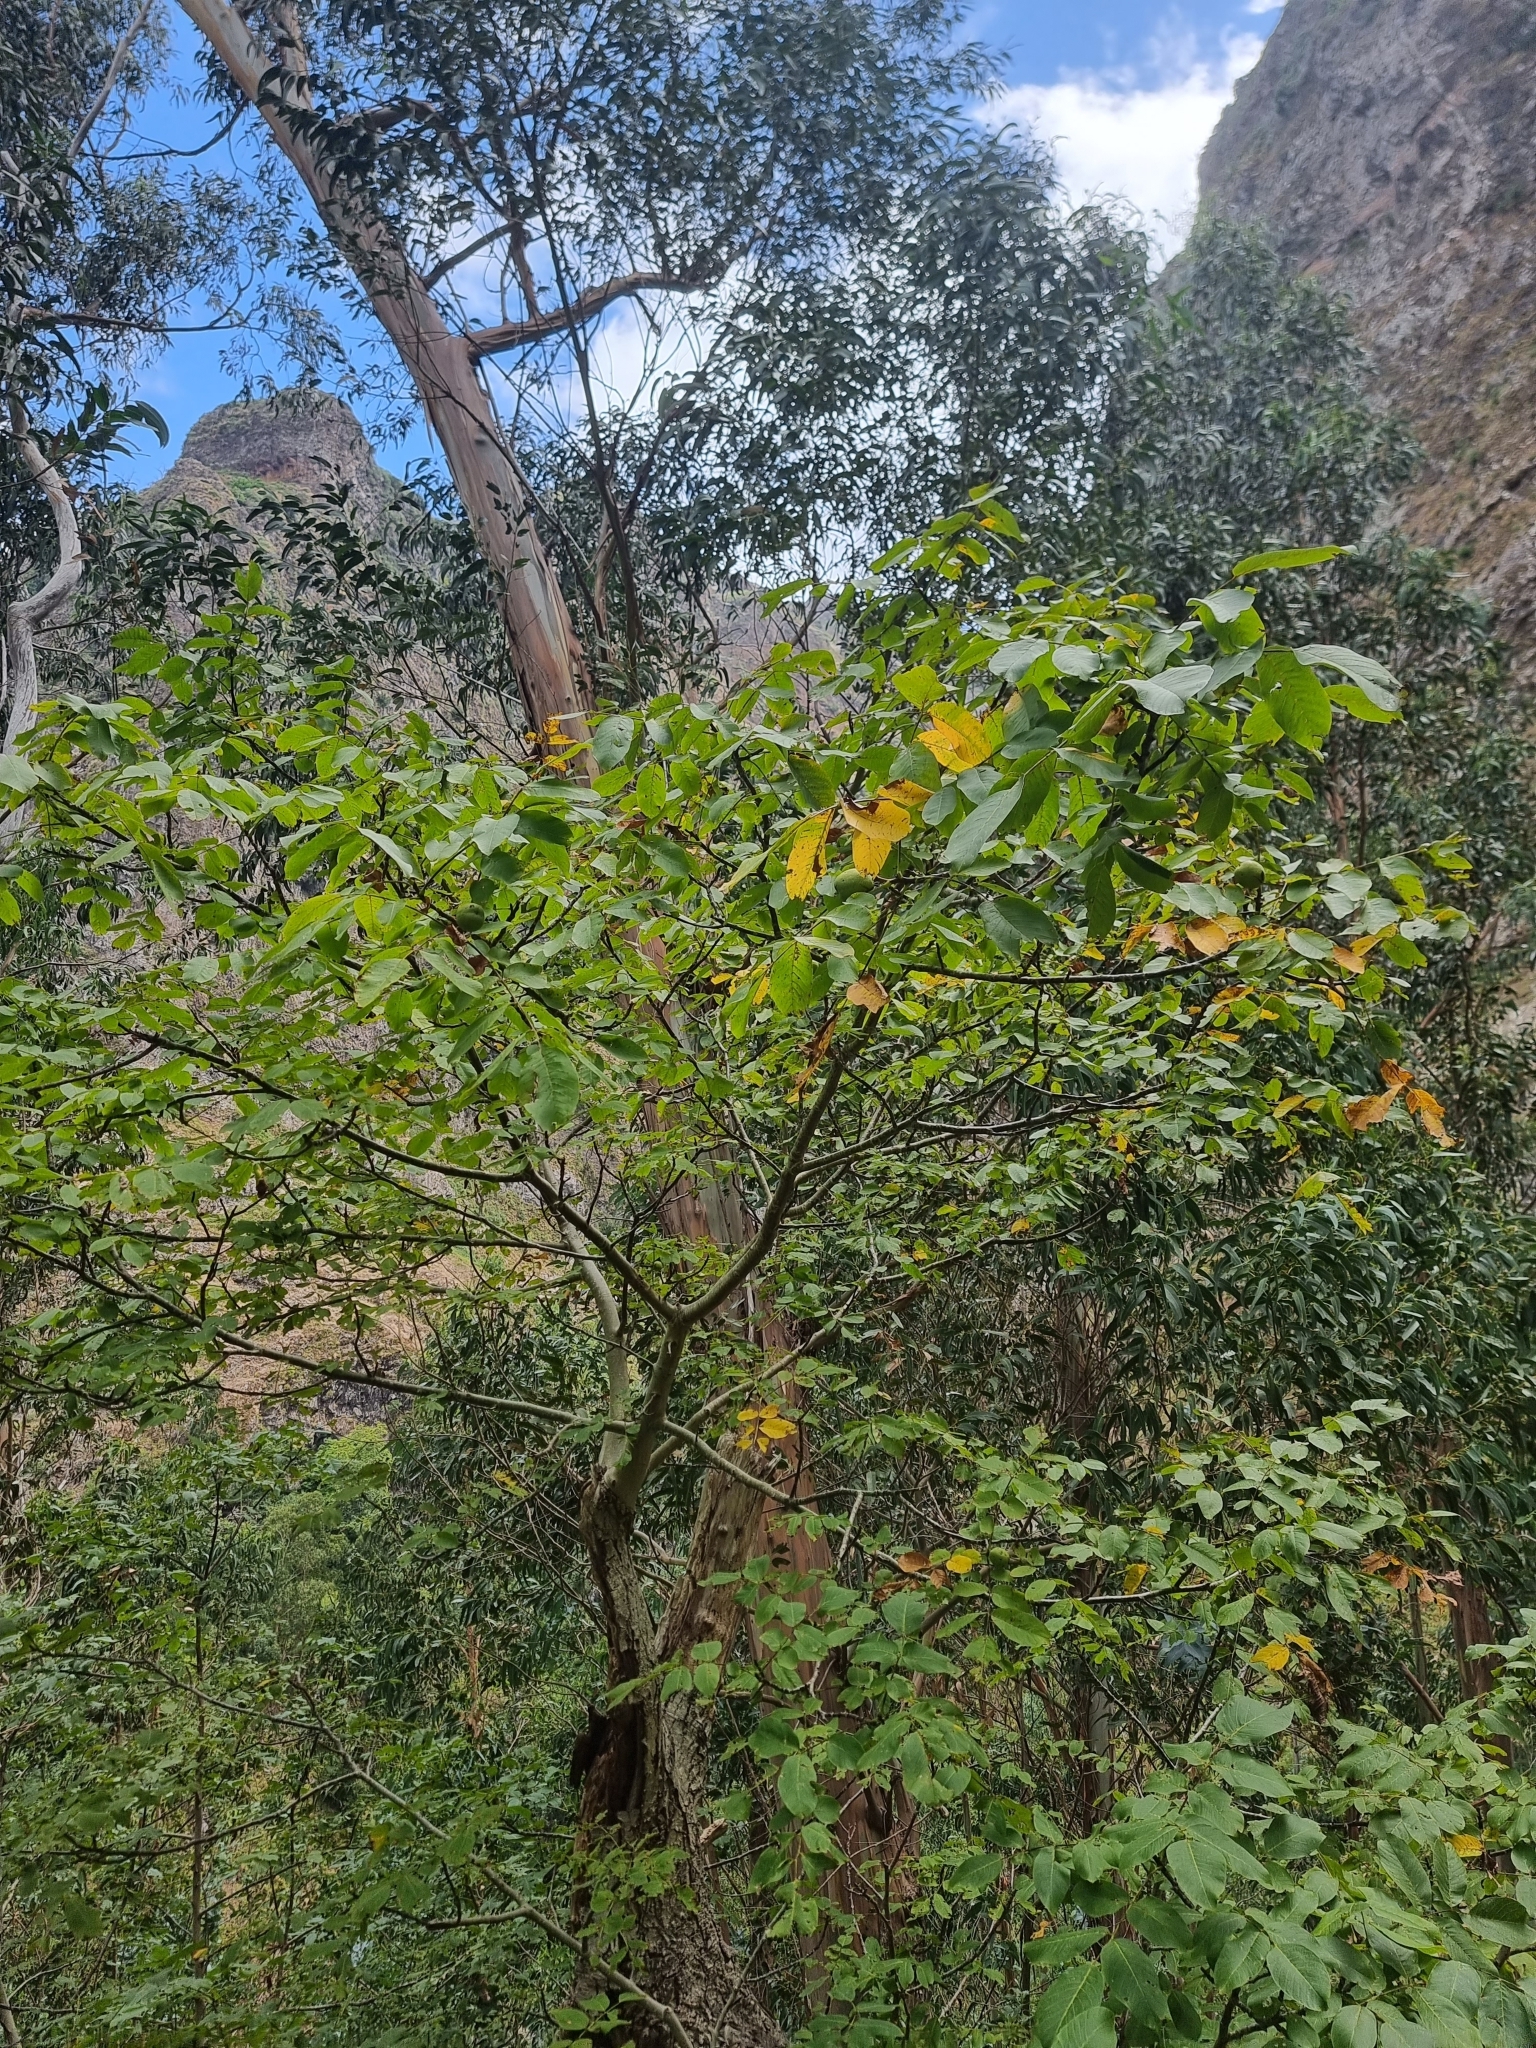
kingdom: Plantae
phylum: Tracheophyta
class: Magnoliopsida
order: Fagales
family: Juglandaceae
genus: Juglans
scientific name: Juglans regia
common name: Walnut
